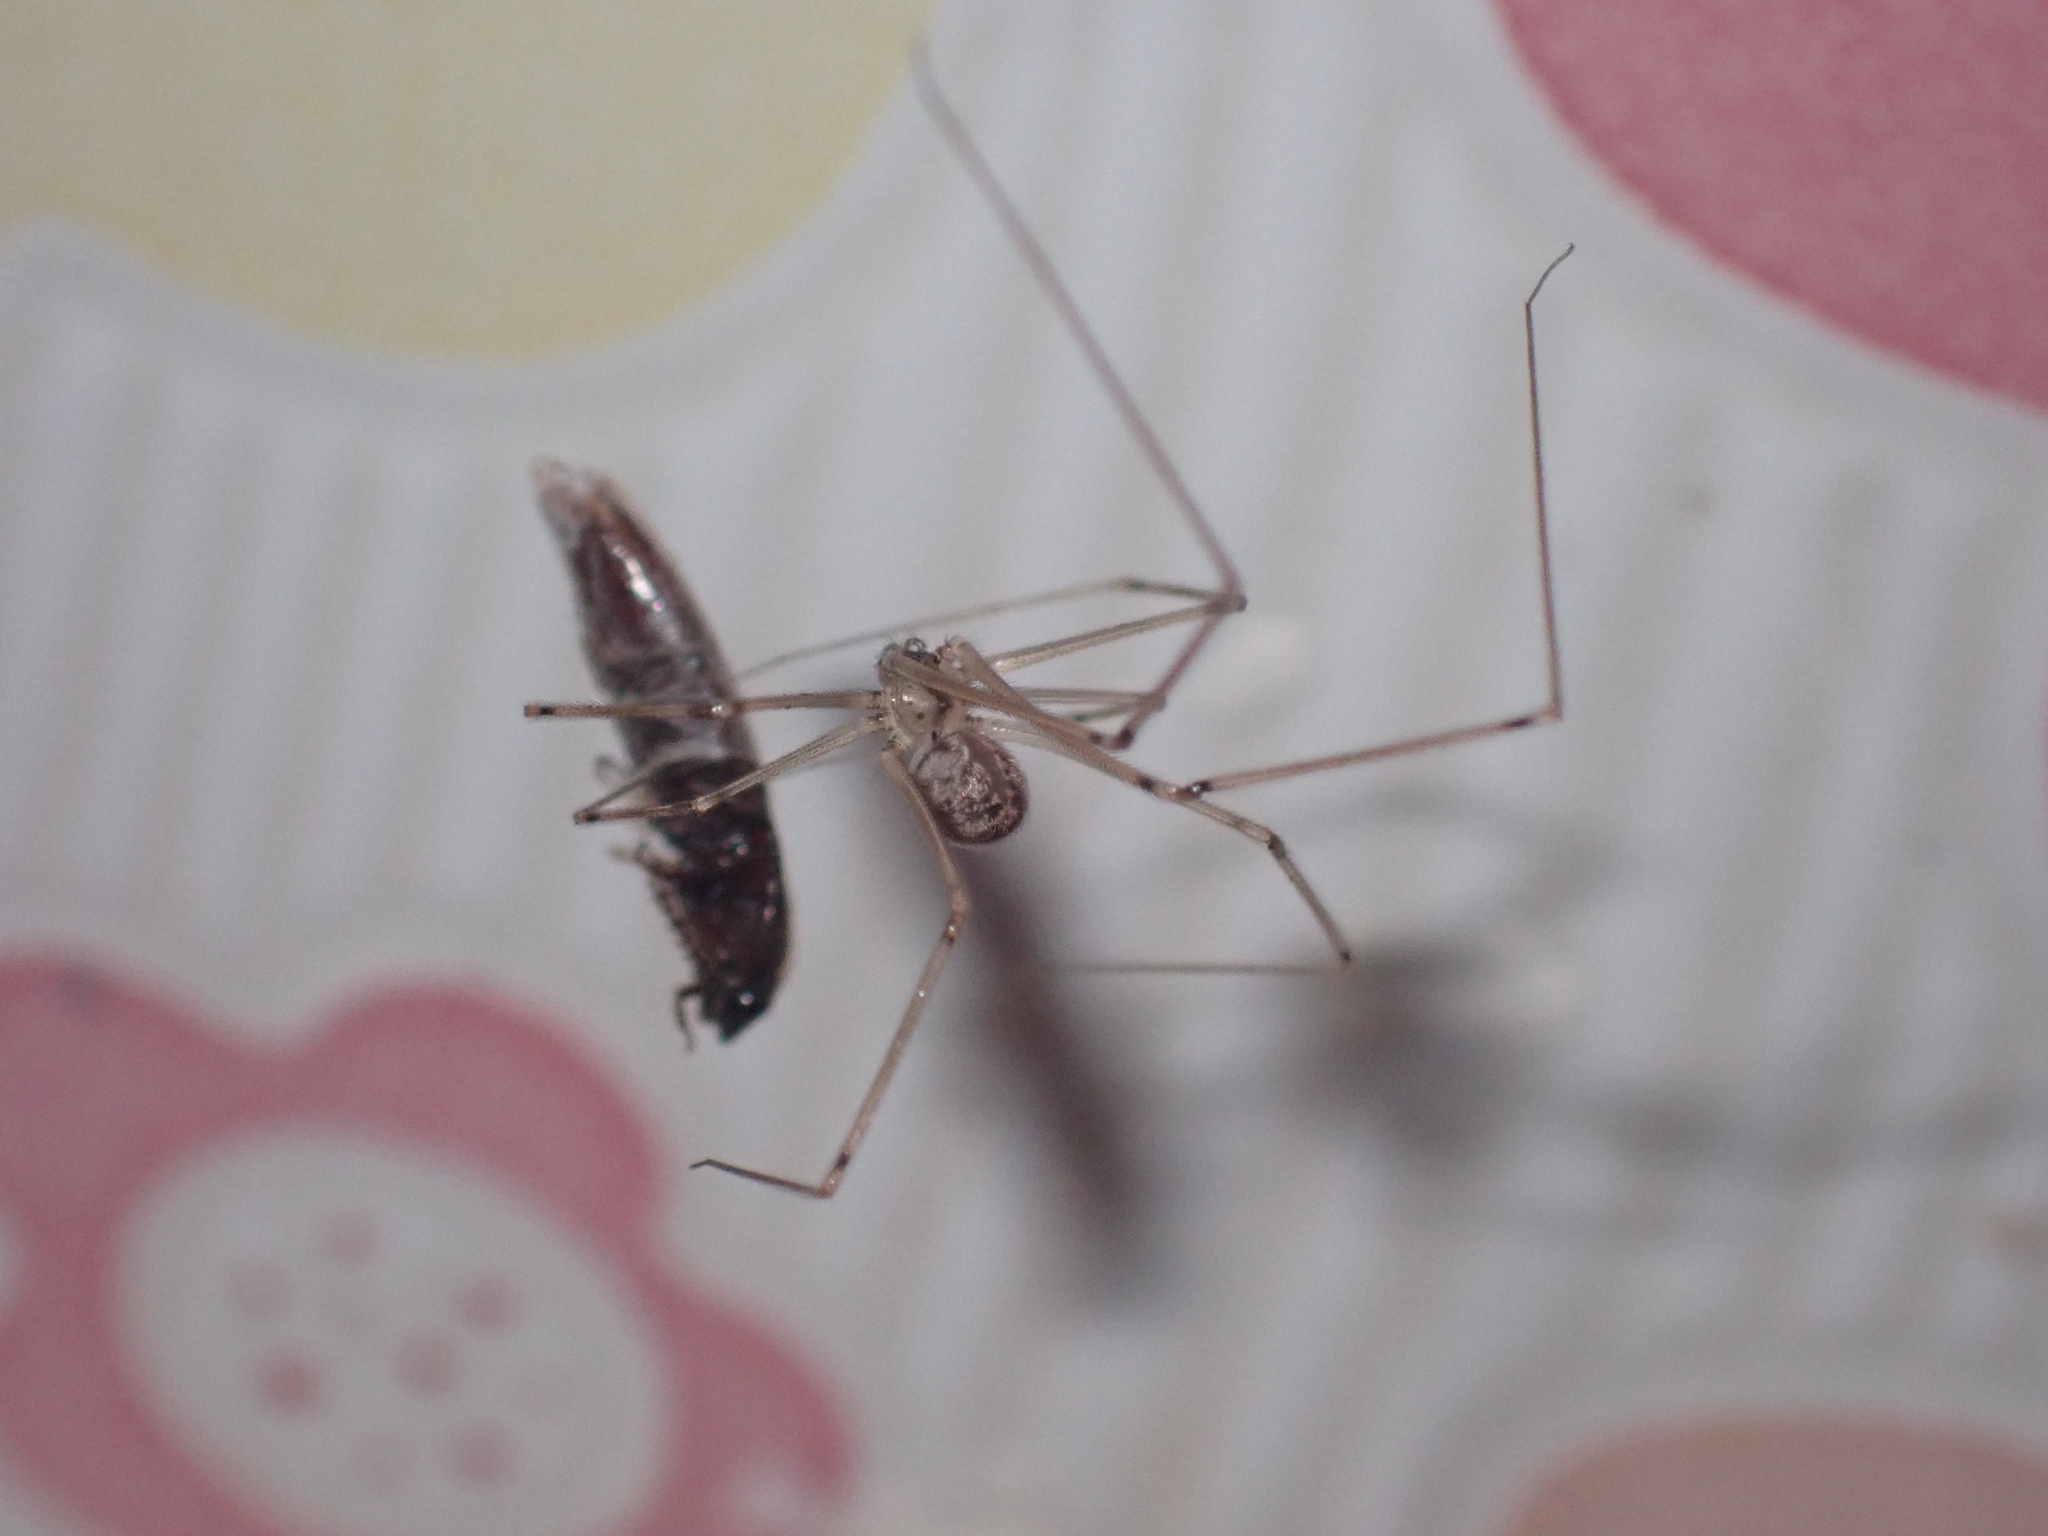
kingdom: Animalia
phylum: Arthropoda
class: Arachnida
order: Araneae
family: Pholcidae
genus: Physocyclus
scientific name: Physocyclus globosus
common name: Cellar spiders
